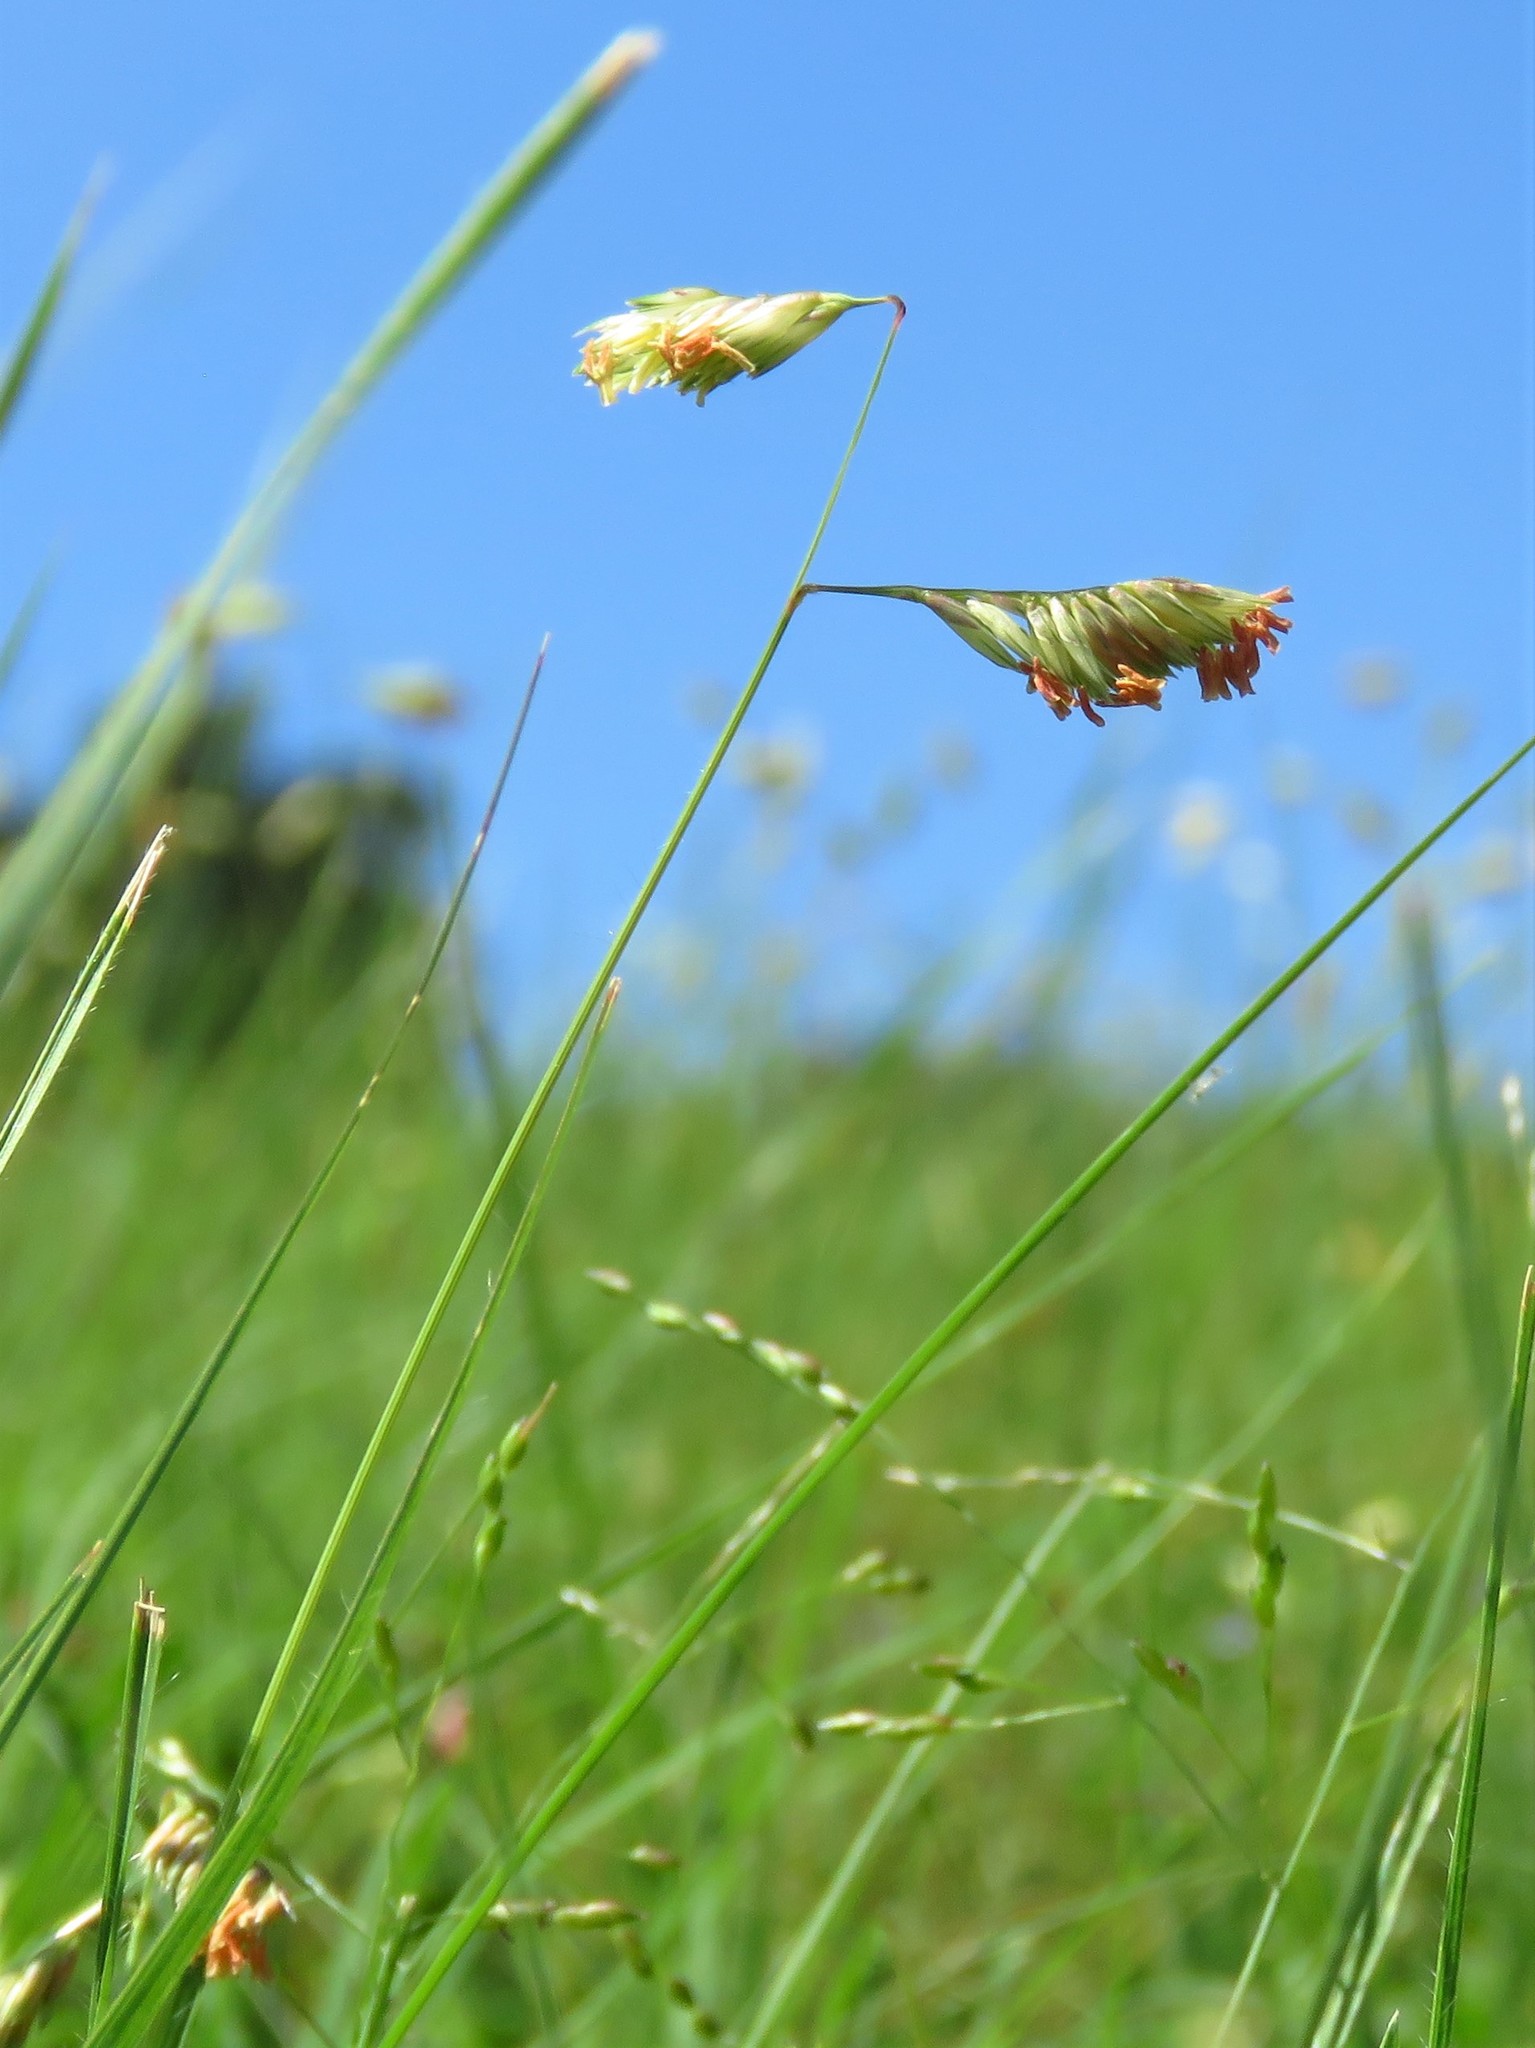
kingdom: Plantae
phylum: Tracheophyta
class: Liliopsida
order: Poales
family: Poaceae
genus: Bouteloua
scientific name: Bouteloua dactyloides
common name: Buffalo grass
